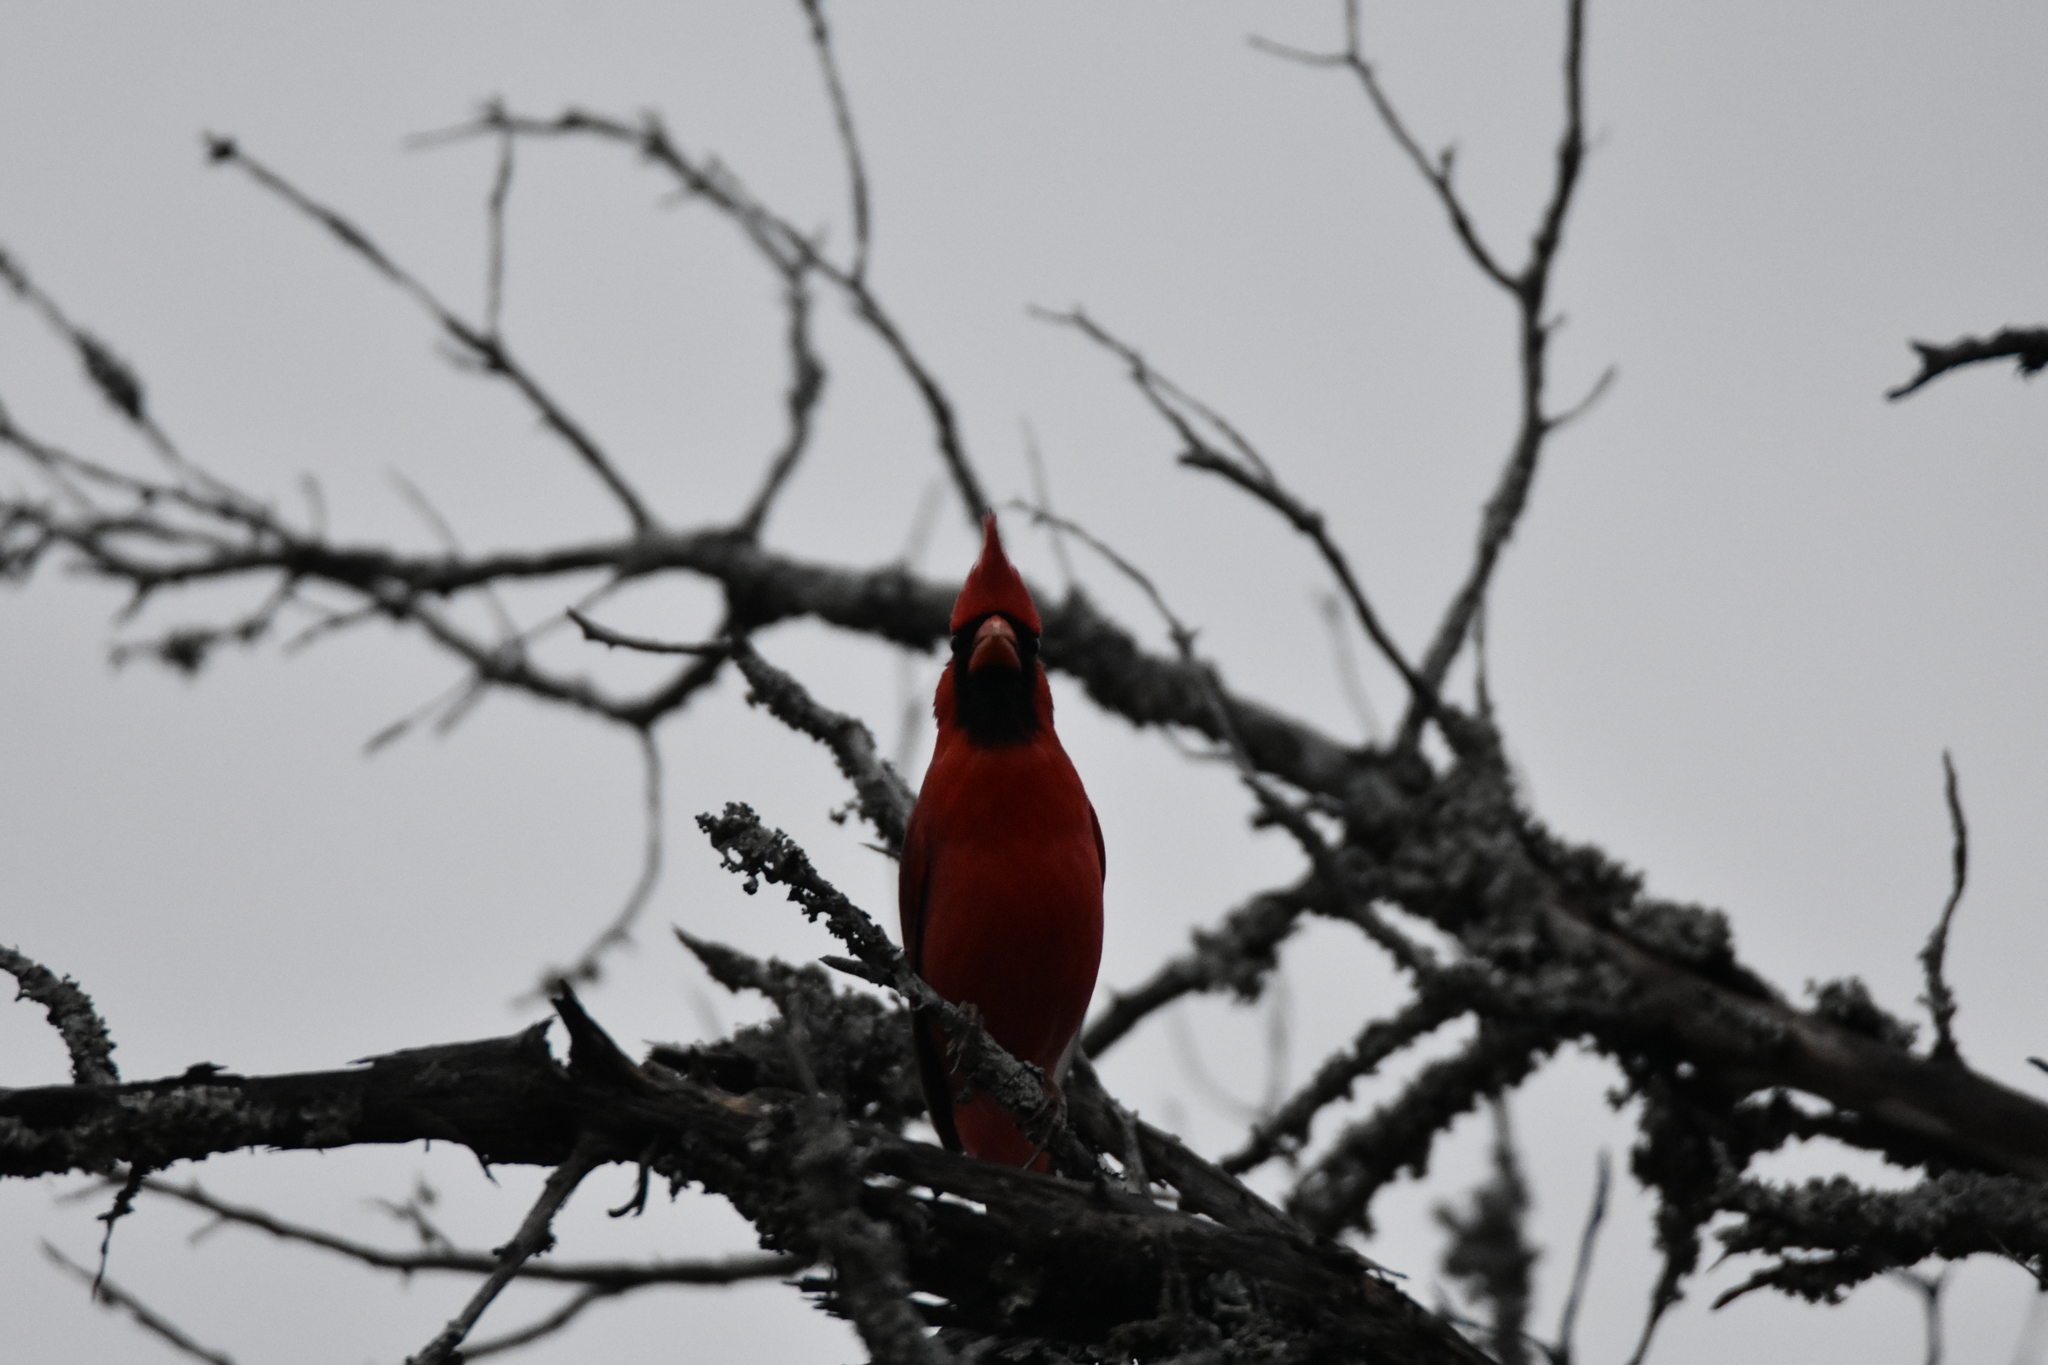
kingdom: Animalia
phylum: Chordata
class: Aves
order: Passeriformes
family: Cardinalidae
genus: Cardinalis
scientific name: Cardinalis cardinalis
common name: Northern cardinal
